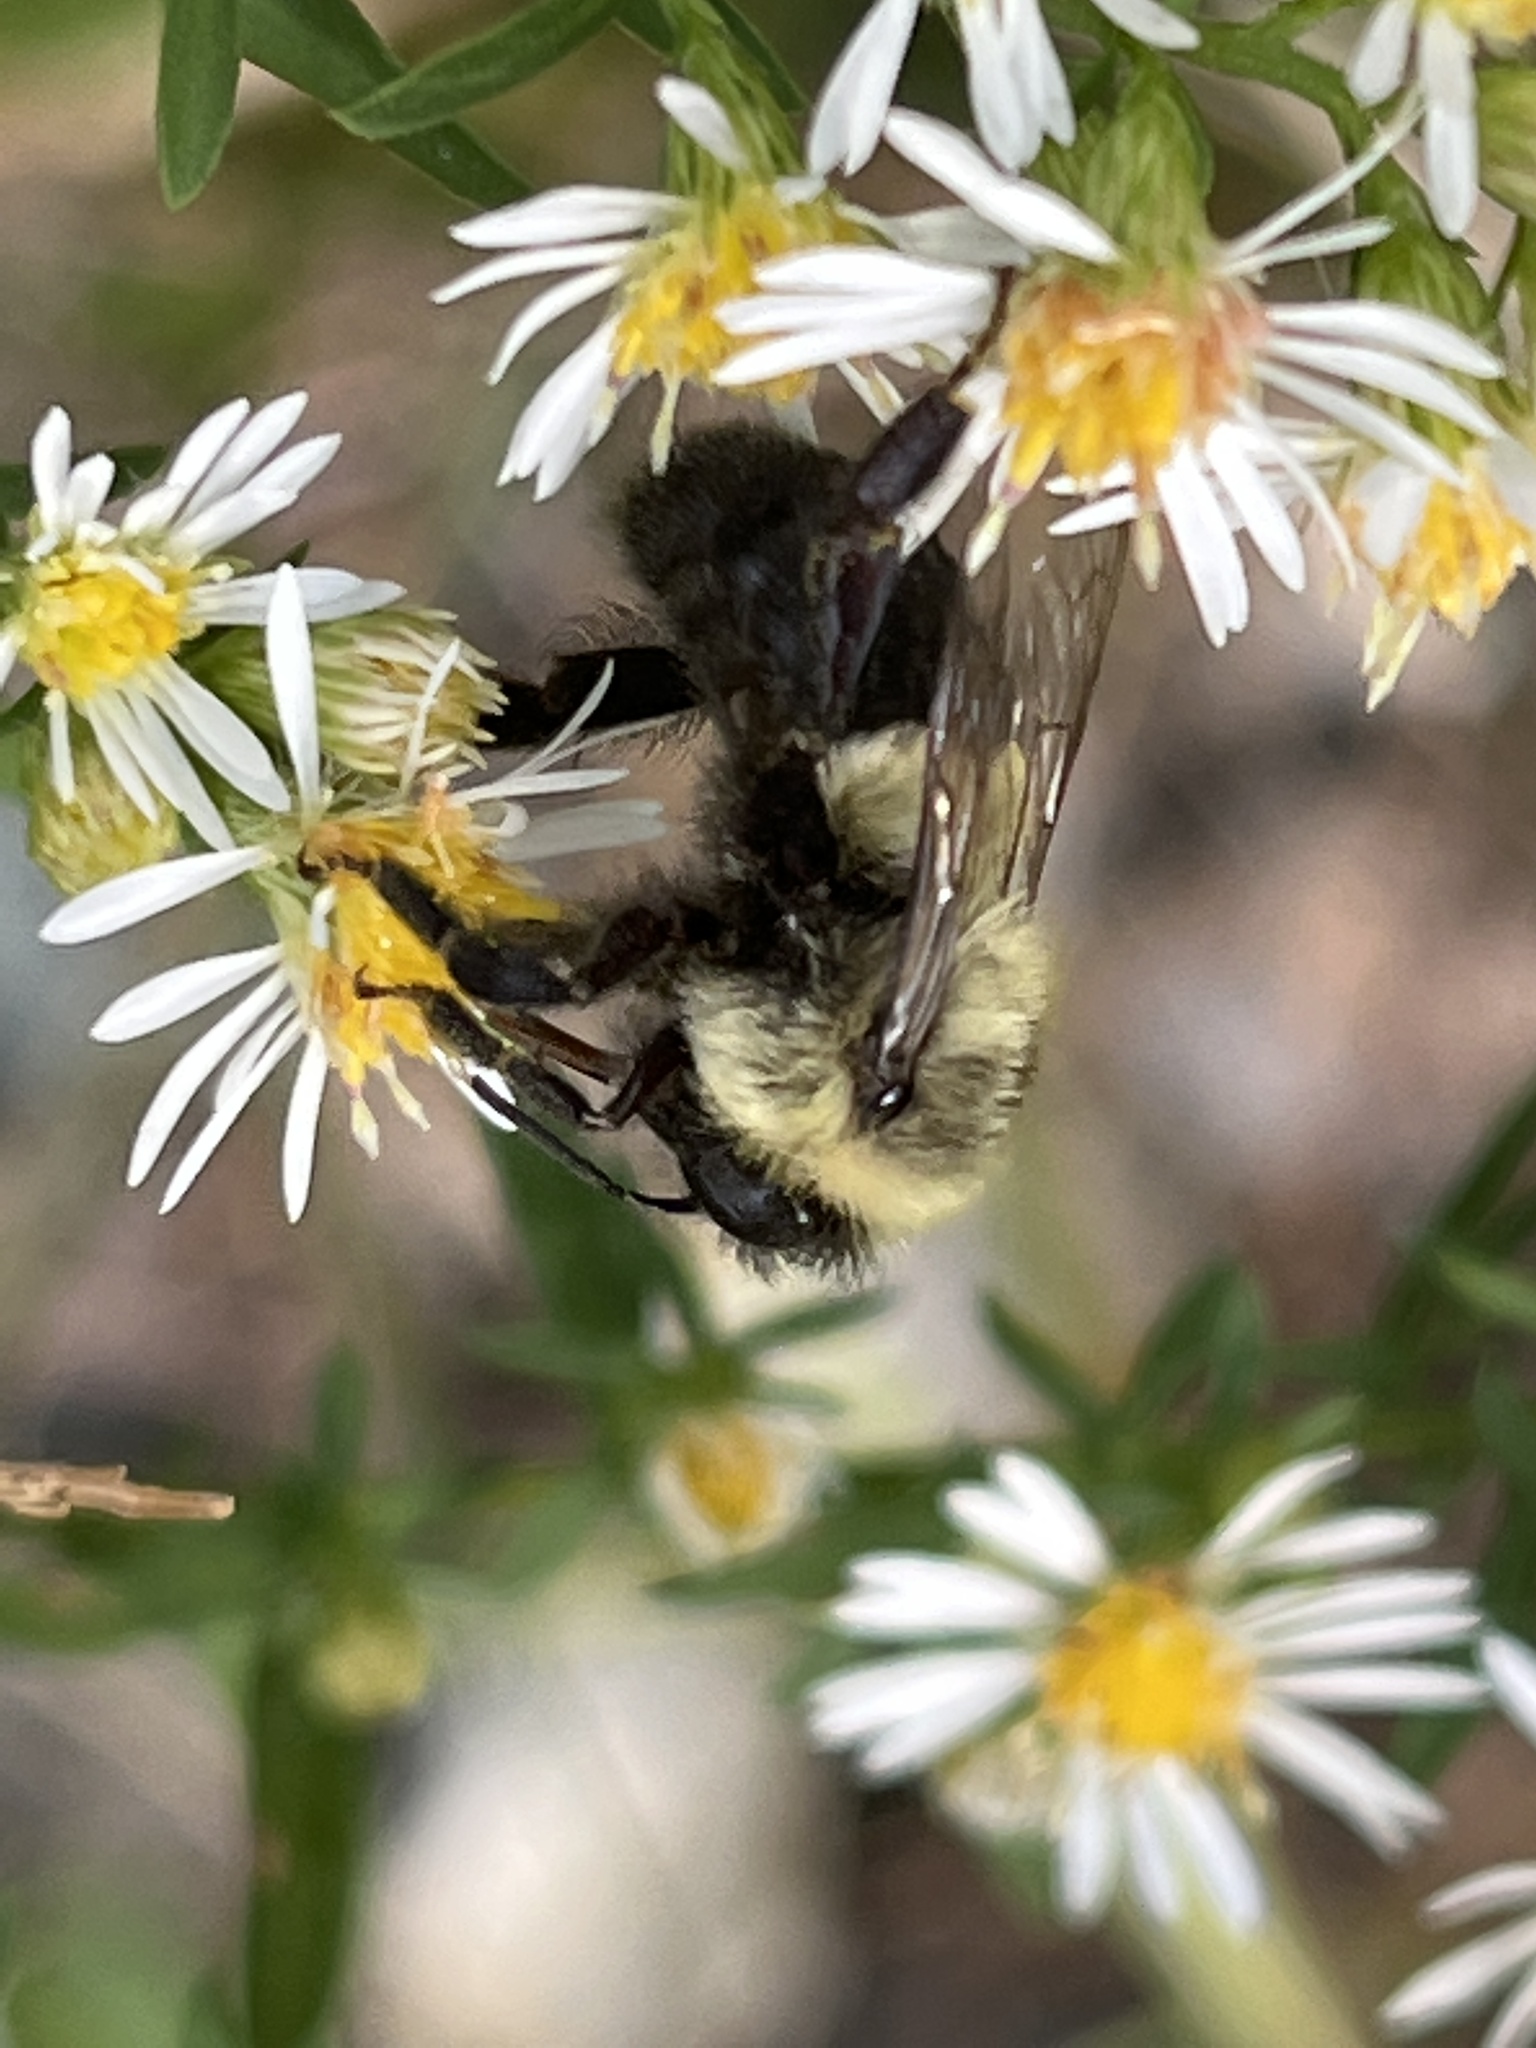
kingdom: Animalia
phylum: Arthropoda
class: Insecta
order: Hymenoptera
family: Apidae
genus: Bombus
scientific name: Bombus impatiens
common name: Common eastern bumble bee
